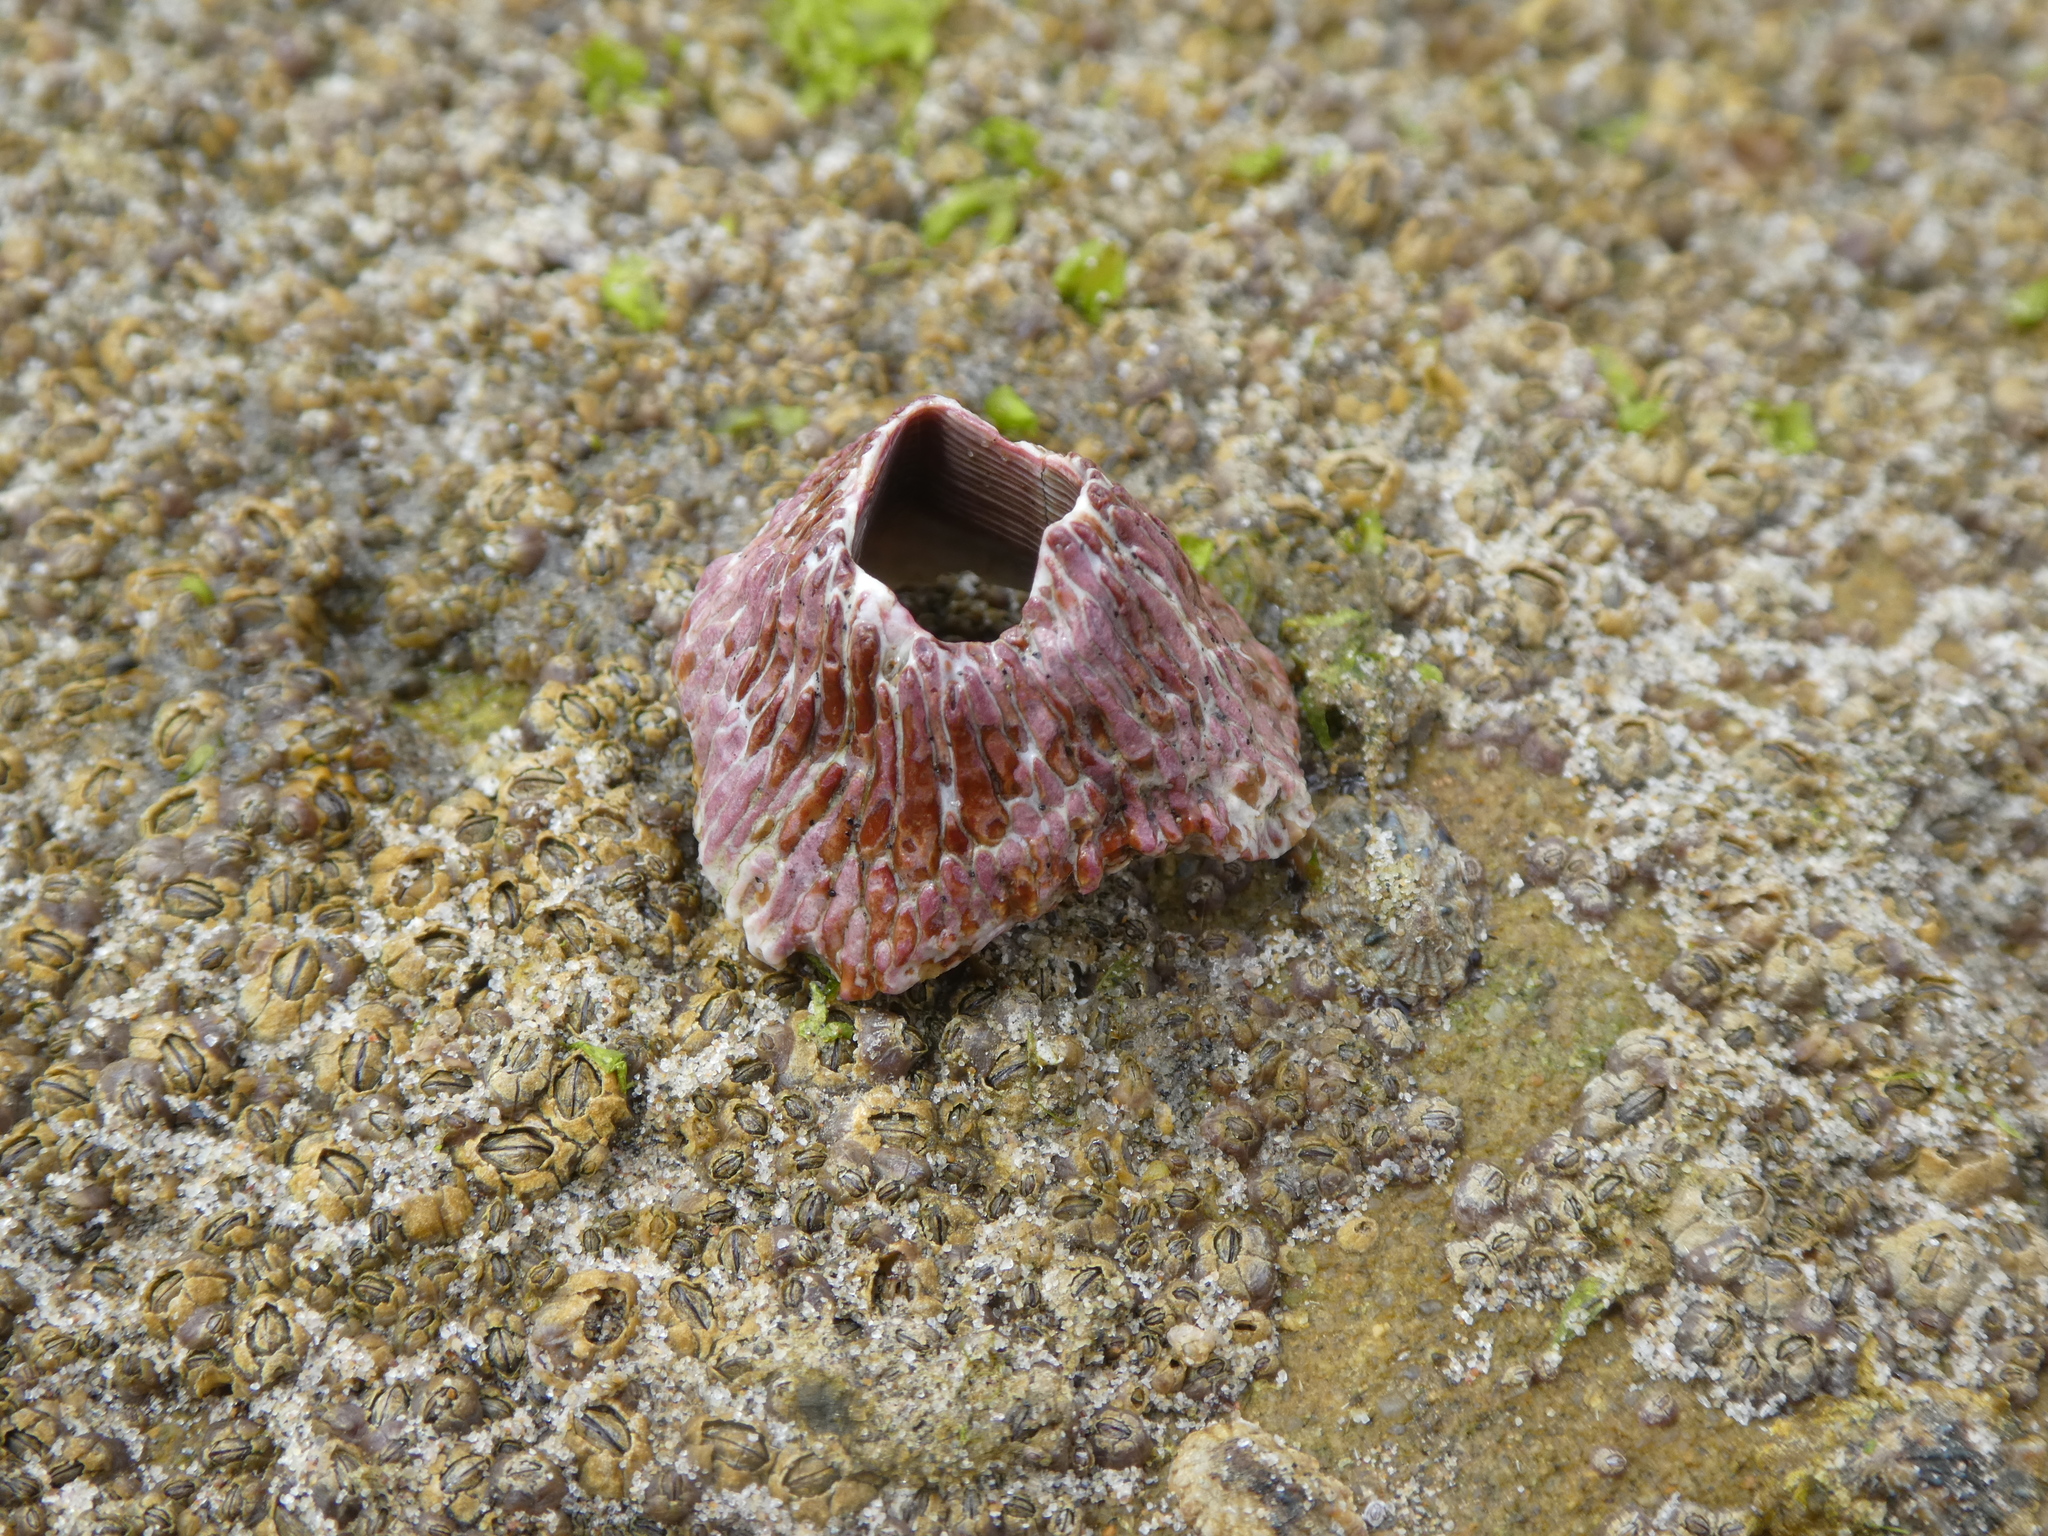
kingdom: Animalia
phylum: Arthropoda
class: Maxillopoda
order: Sessilia
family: Tetraclitidae
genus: Tetraclita
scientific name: Tetraclita rubescens
